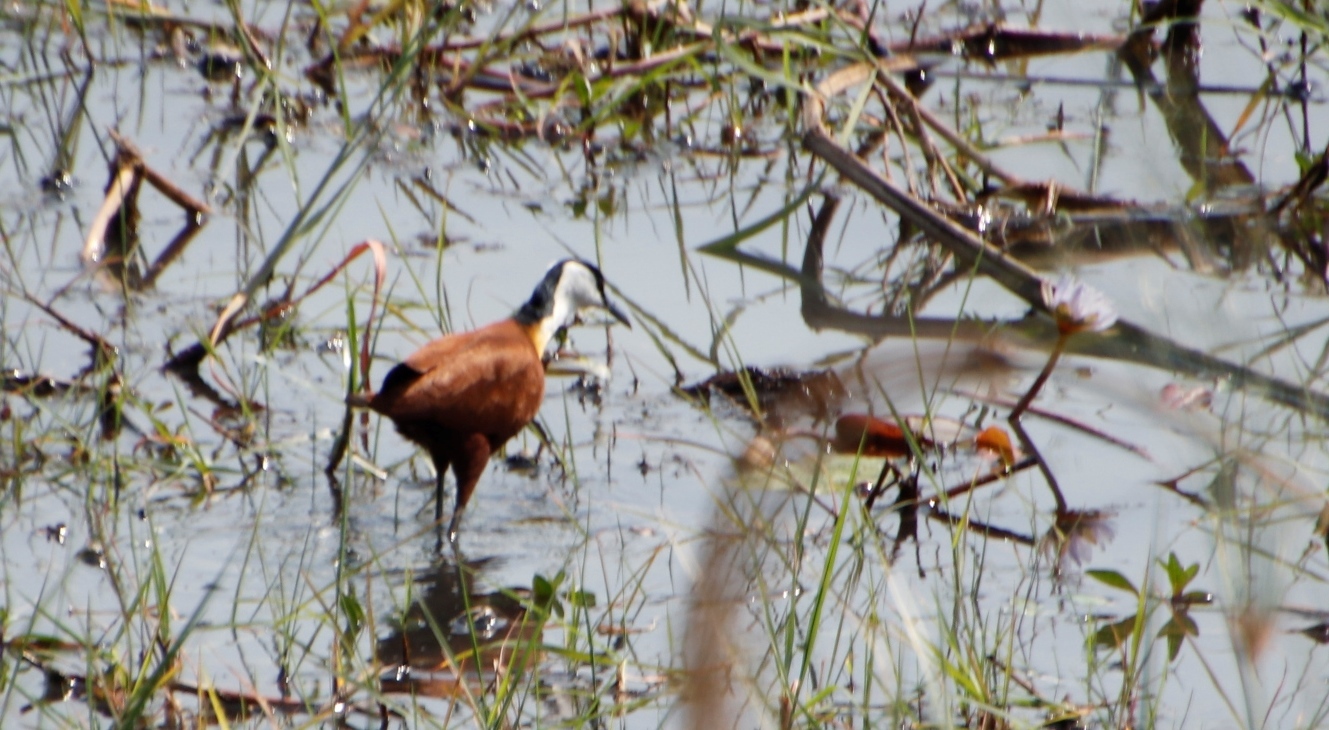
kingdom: Animalia
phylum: Chordata
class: Aves
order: Charadriiformes
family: Jacanidae
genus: Actophilornis
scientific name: Actophilornis africanus
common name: African jacana
